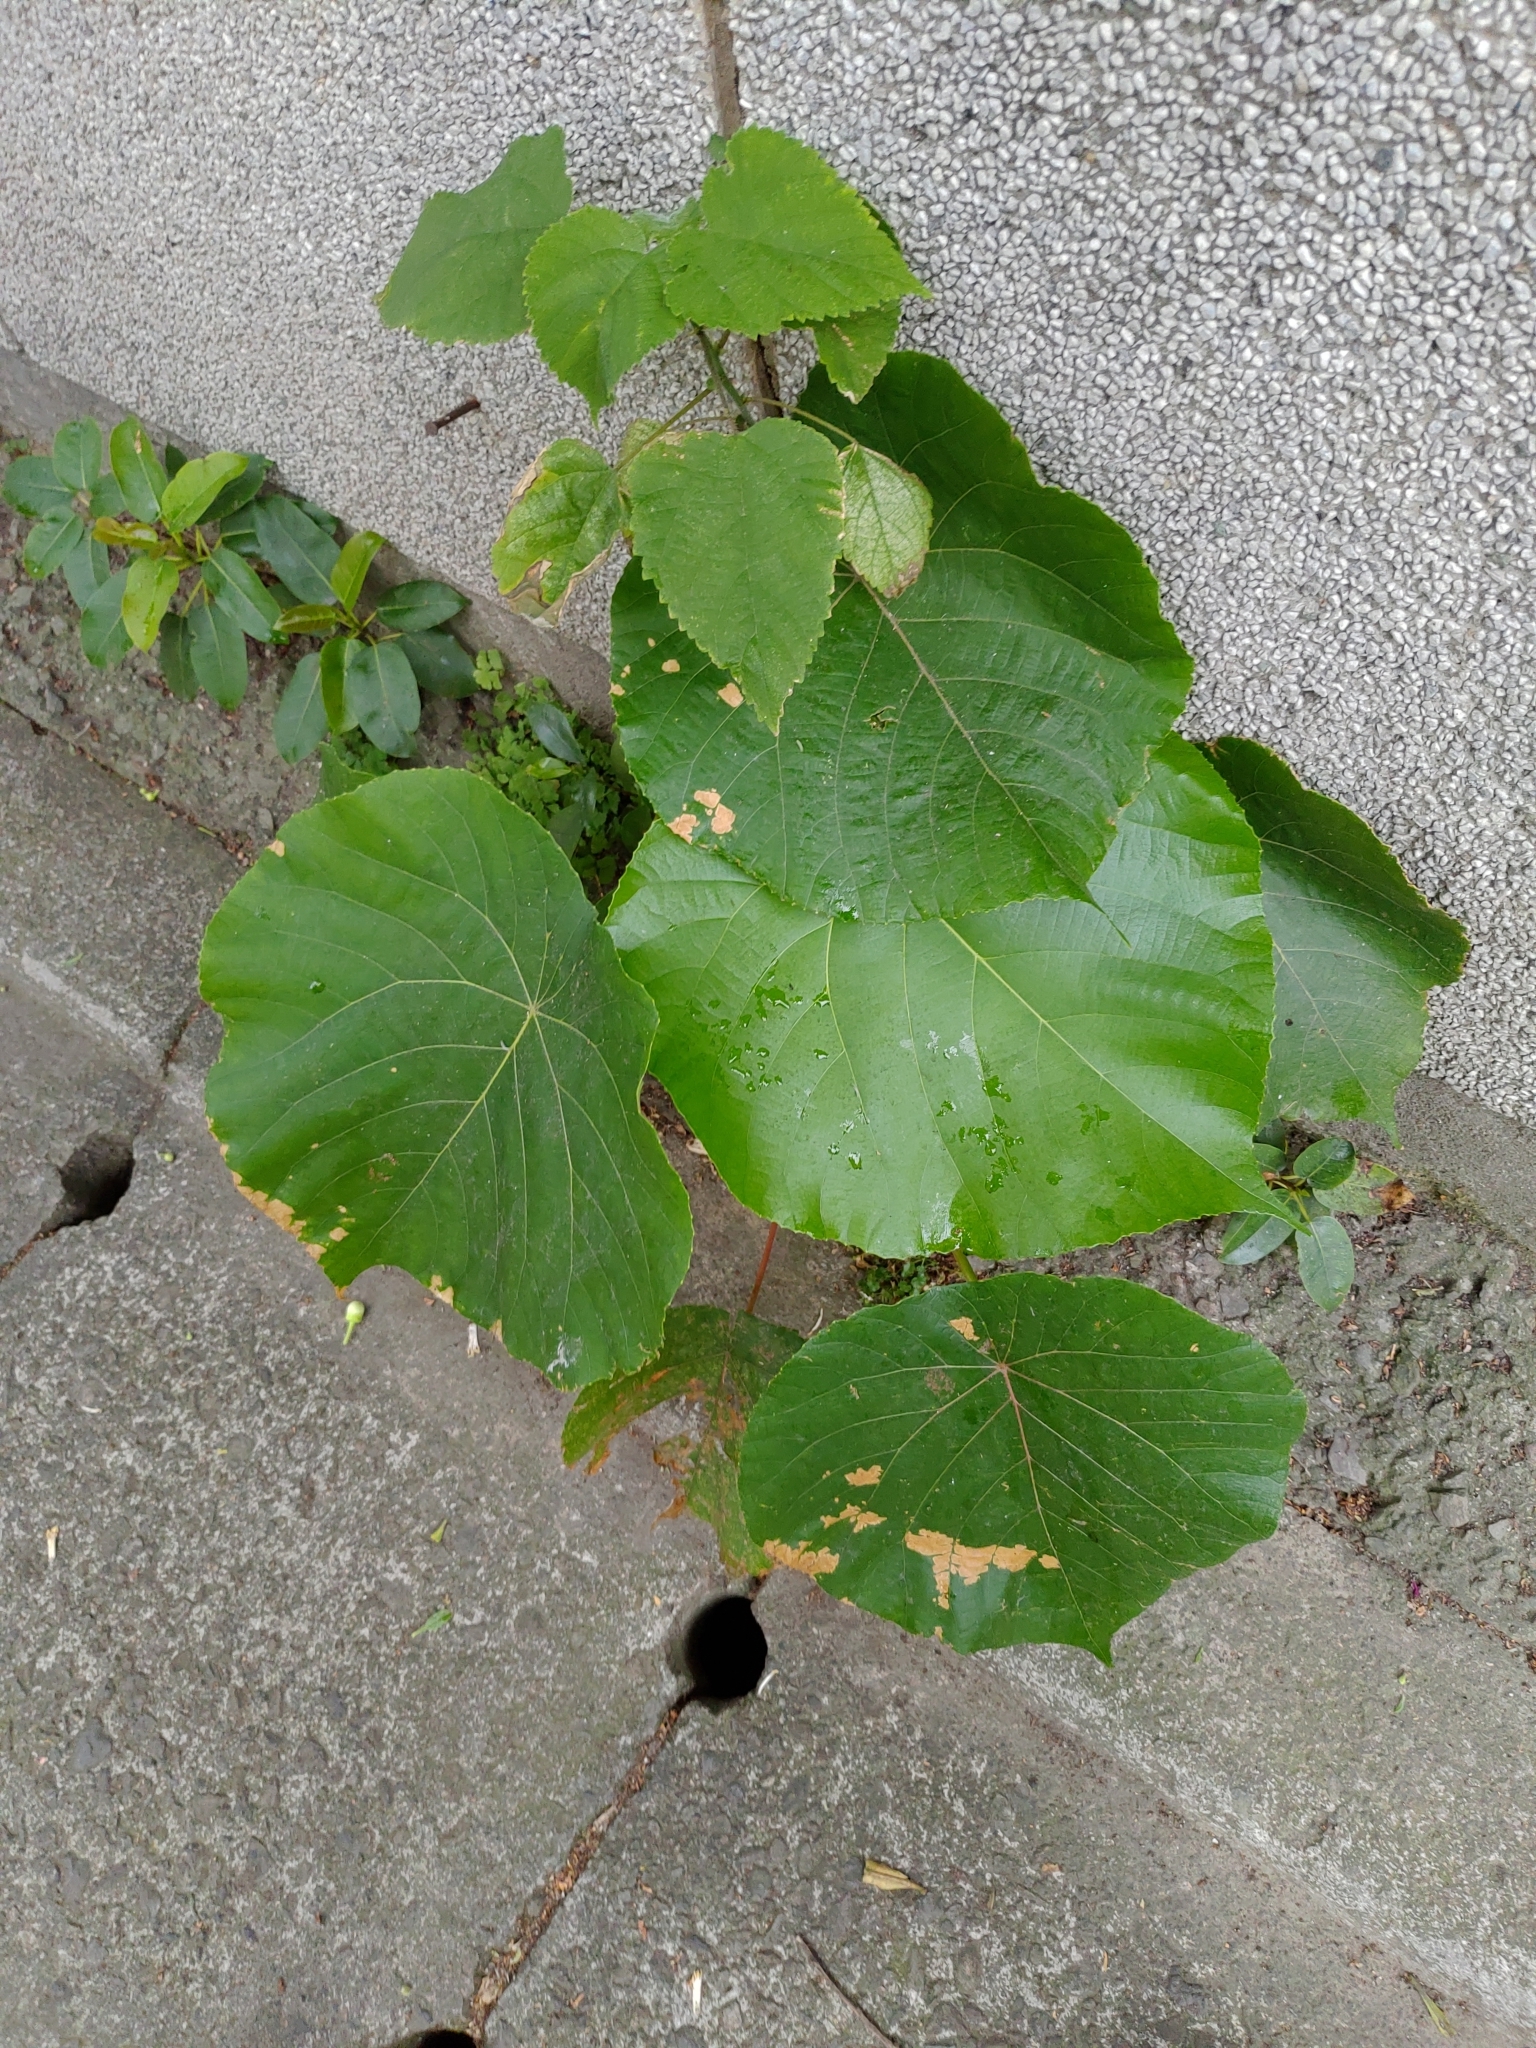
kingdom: Plantae
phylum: Tracheophyta
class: Magnoliopsida
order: Malpighiales
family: Euphorbiaceae
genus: Macaranga
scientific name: Macaranga tanarius
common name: Parasol leaf tree
